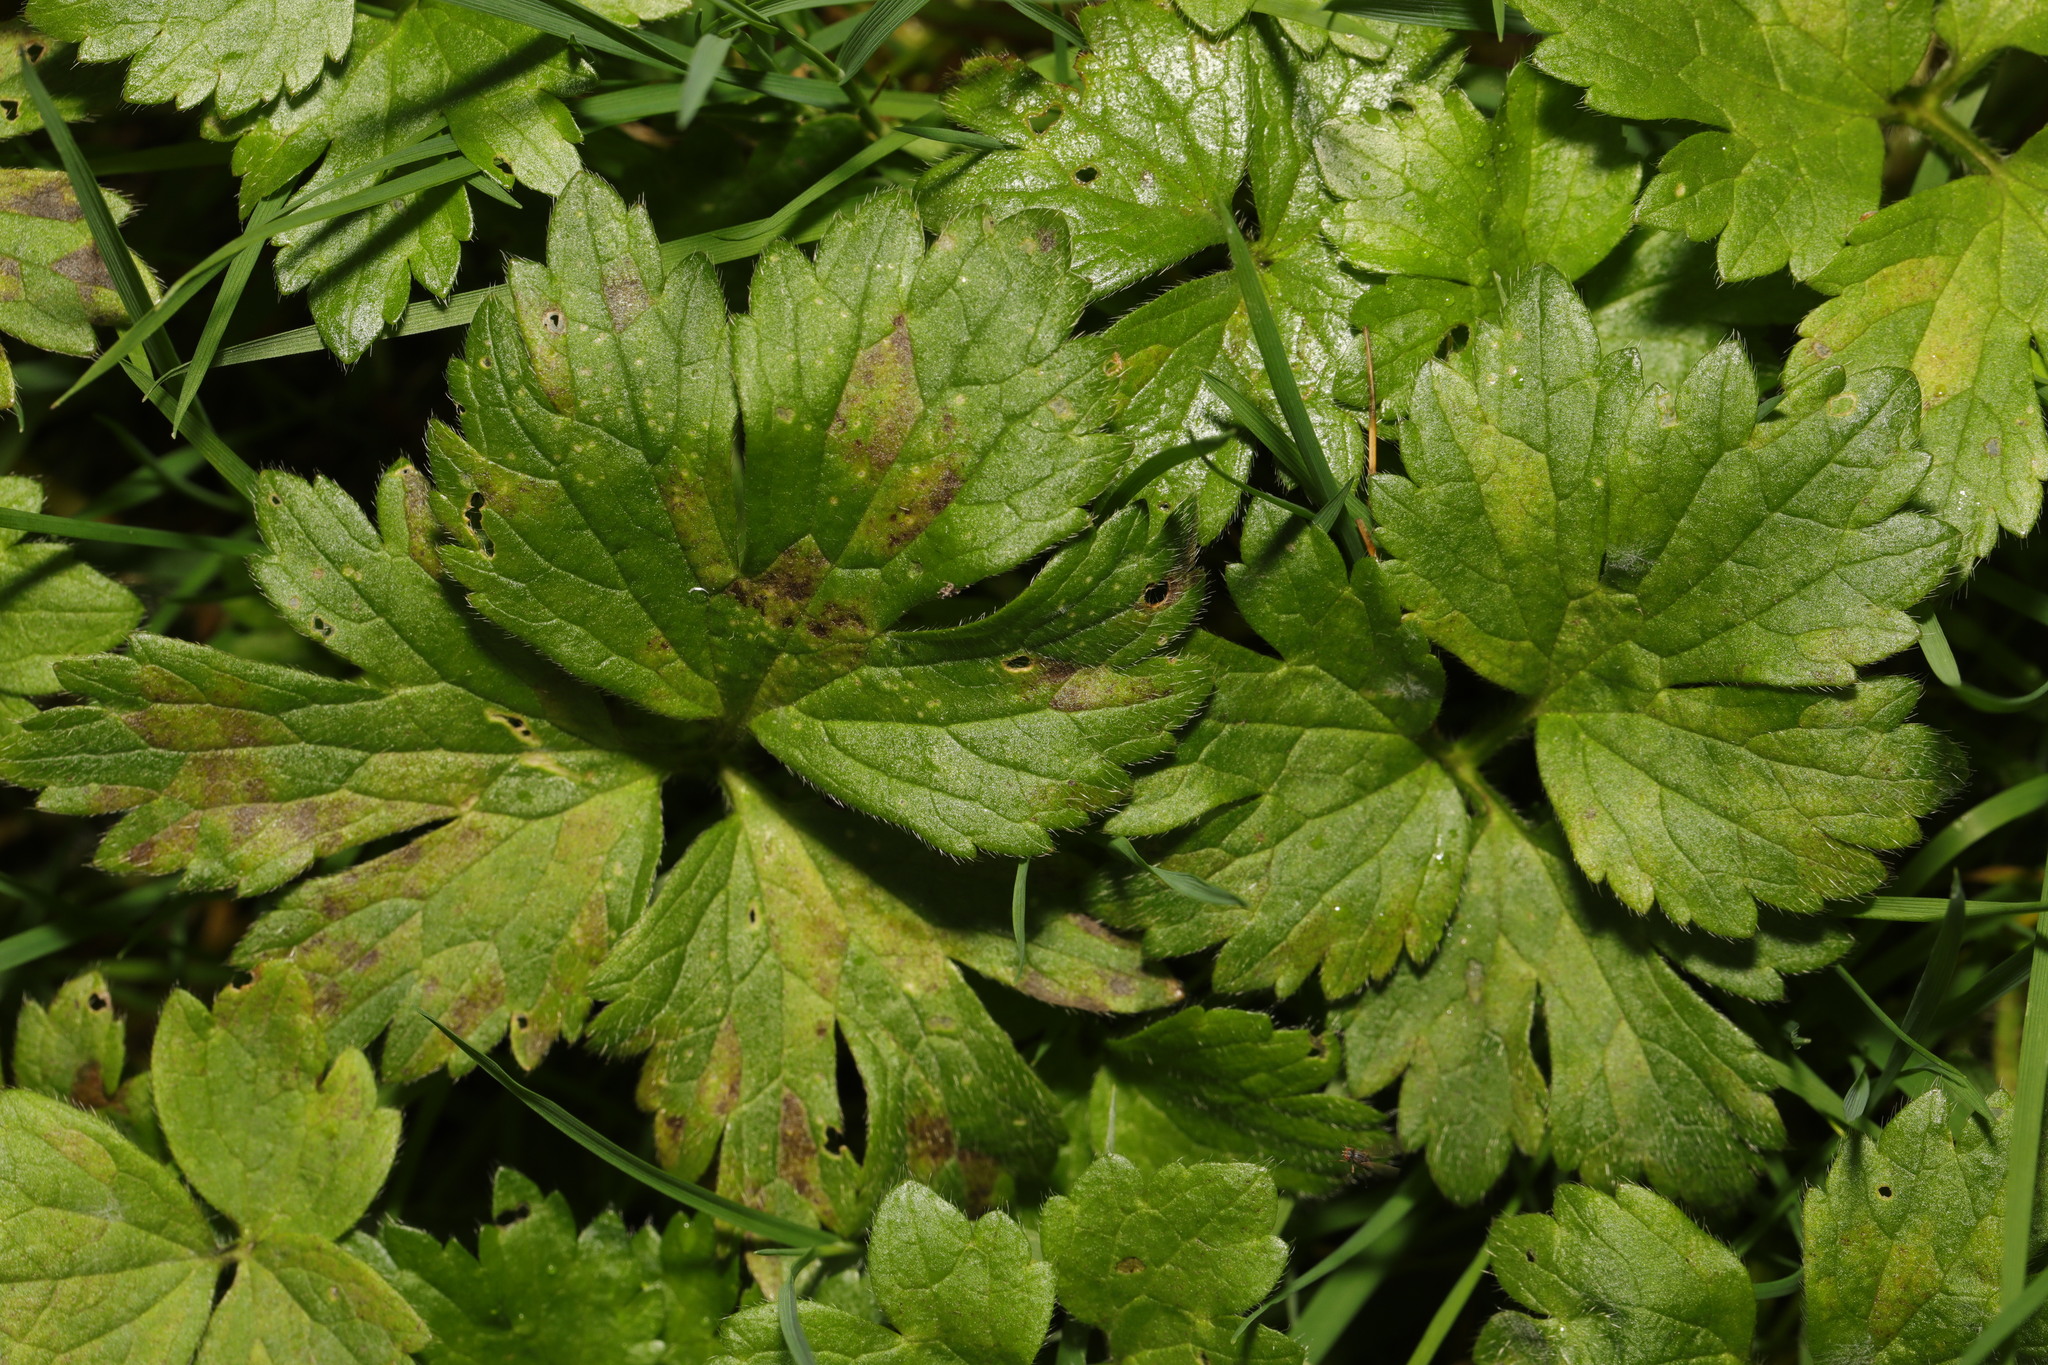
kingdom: Plantae
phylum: Tracheophyta
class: Magnoliopsida
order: Ranunculales
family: Ranunculaceae
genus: Ranunculus
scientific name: Ranunculus repens
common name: Creeping buttercup
